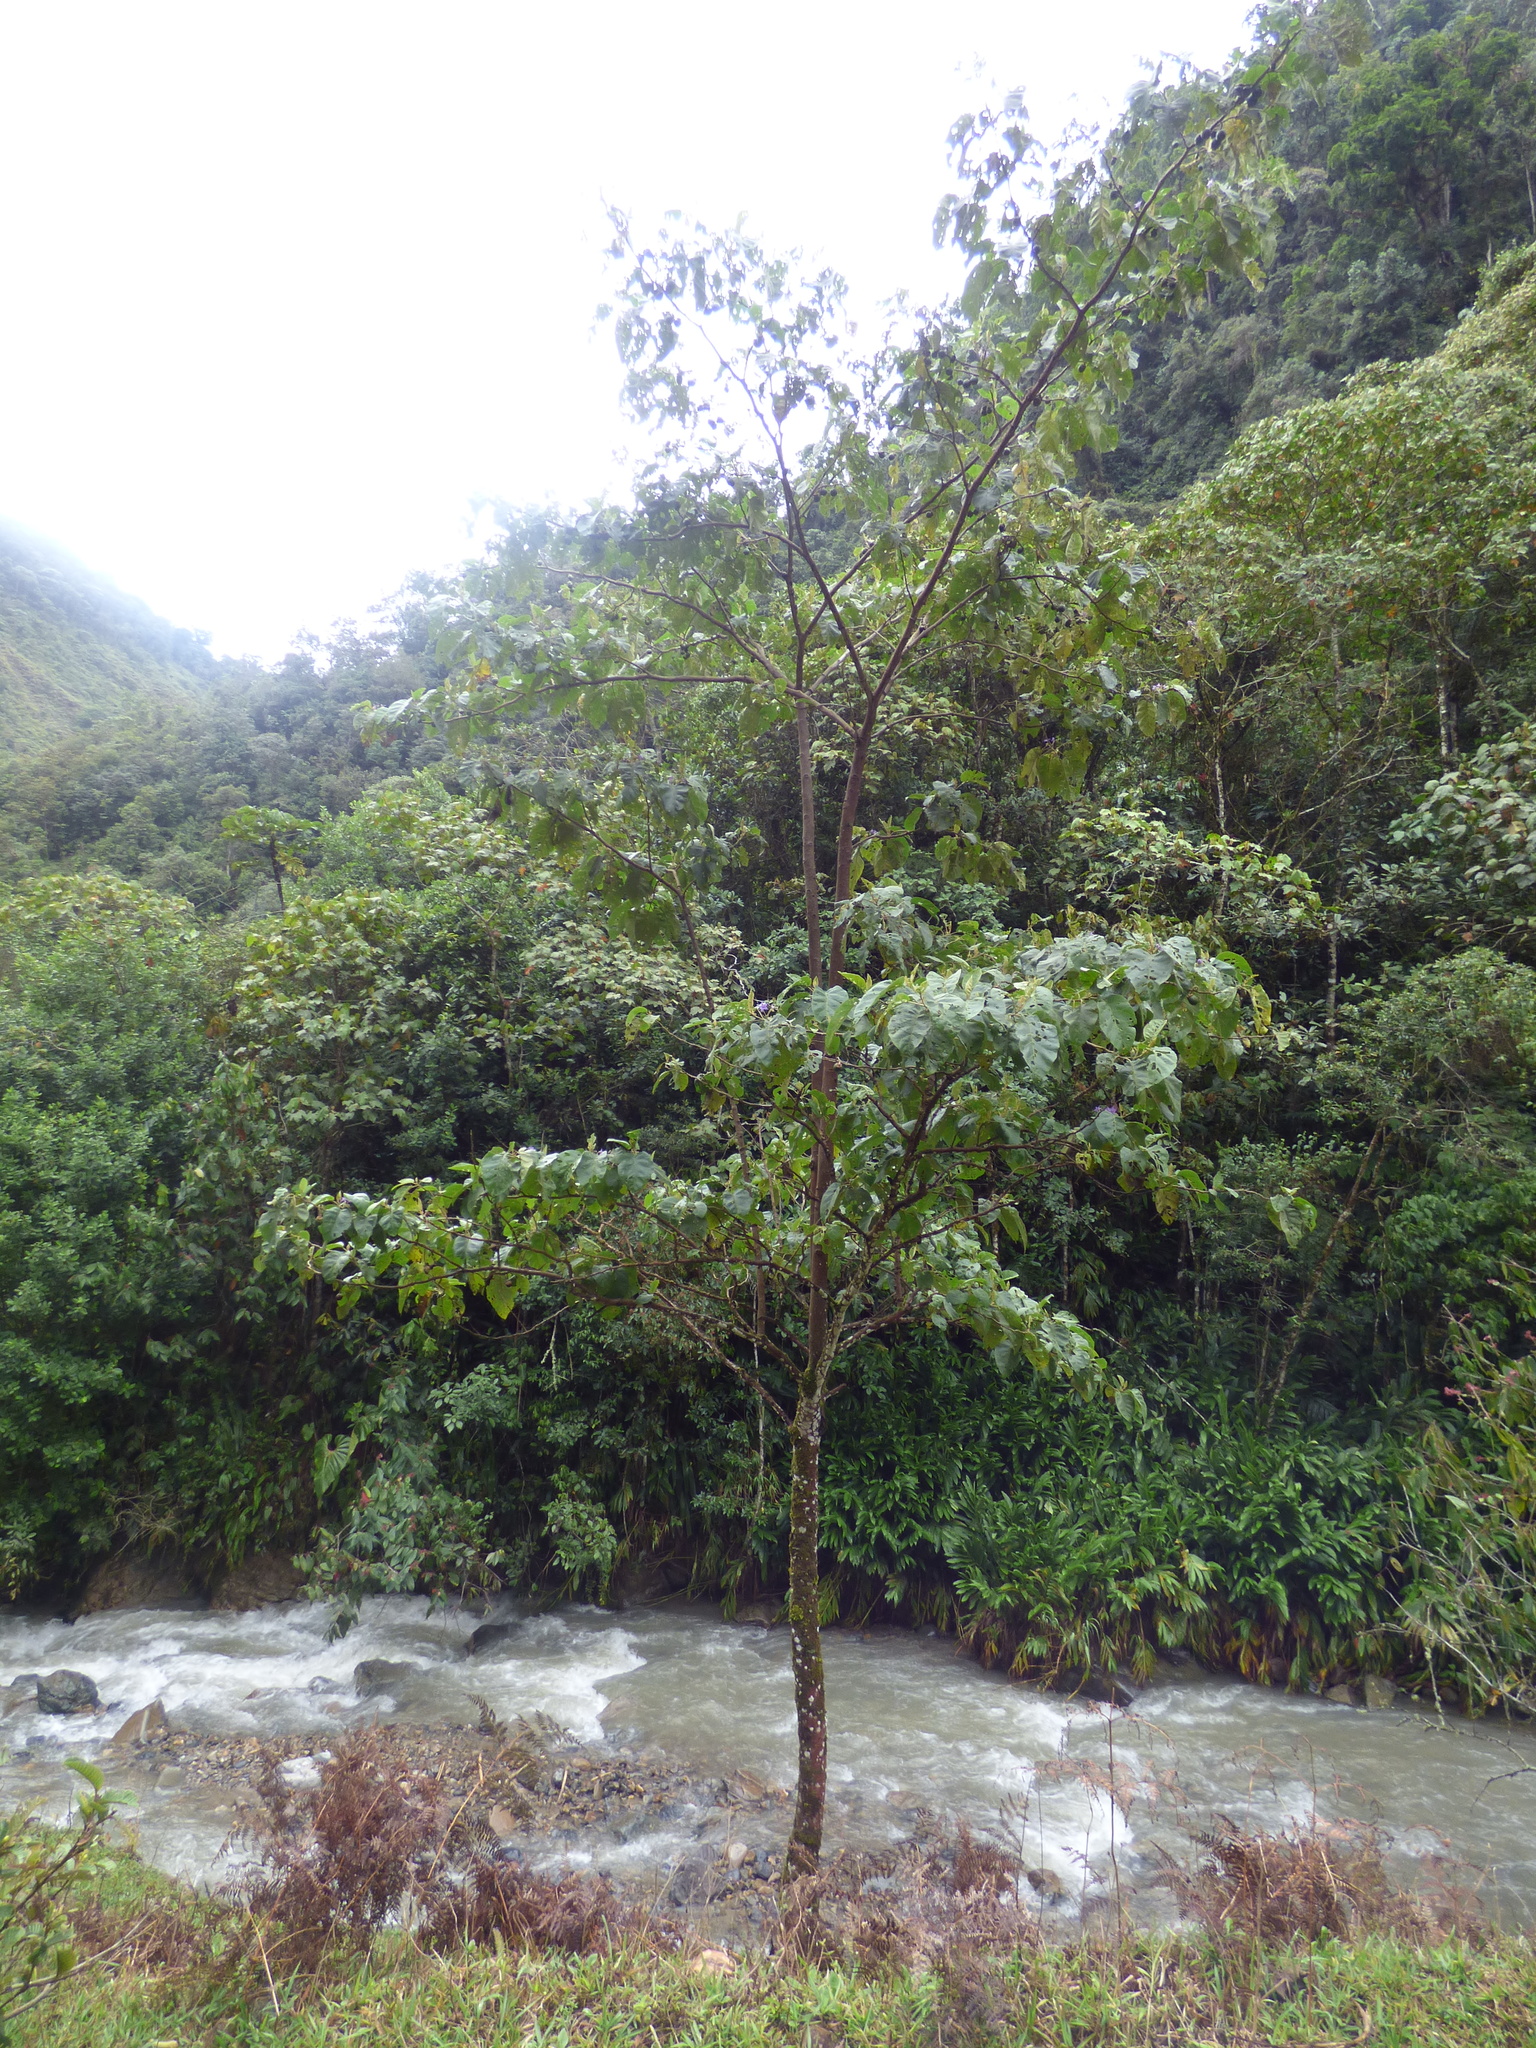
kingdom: Plantae
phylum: Tracheophyta
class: Magnoliopsida
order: Solanales
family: Solanaceae
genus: Solanum
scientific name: Solanum sycophanta
